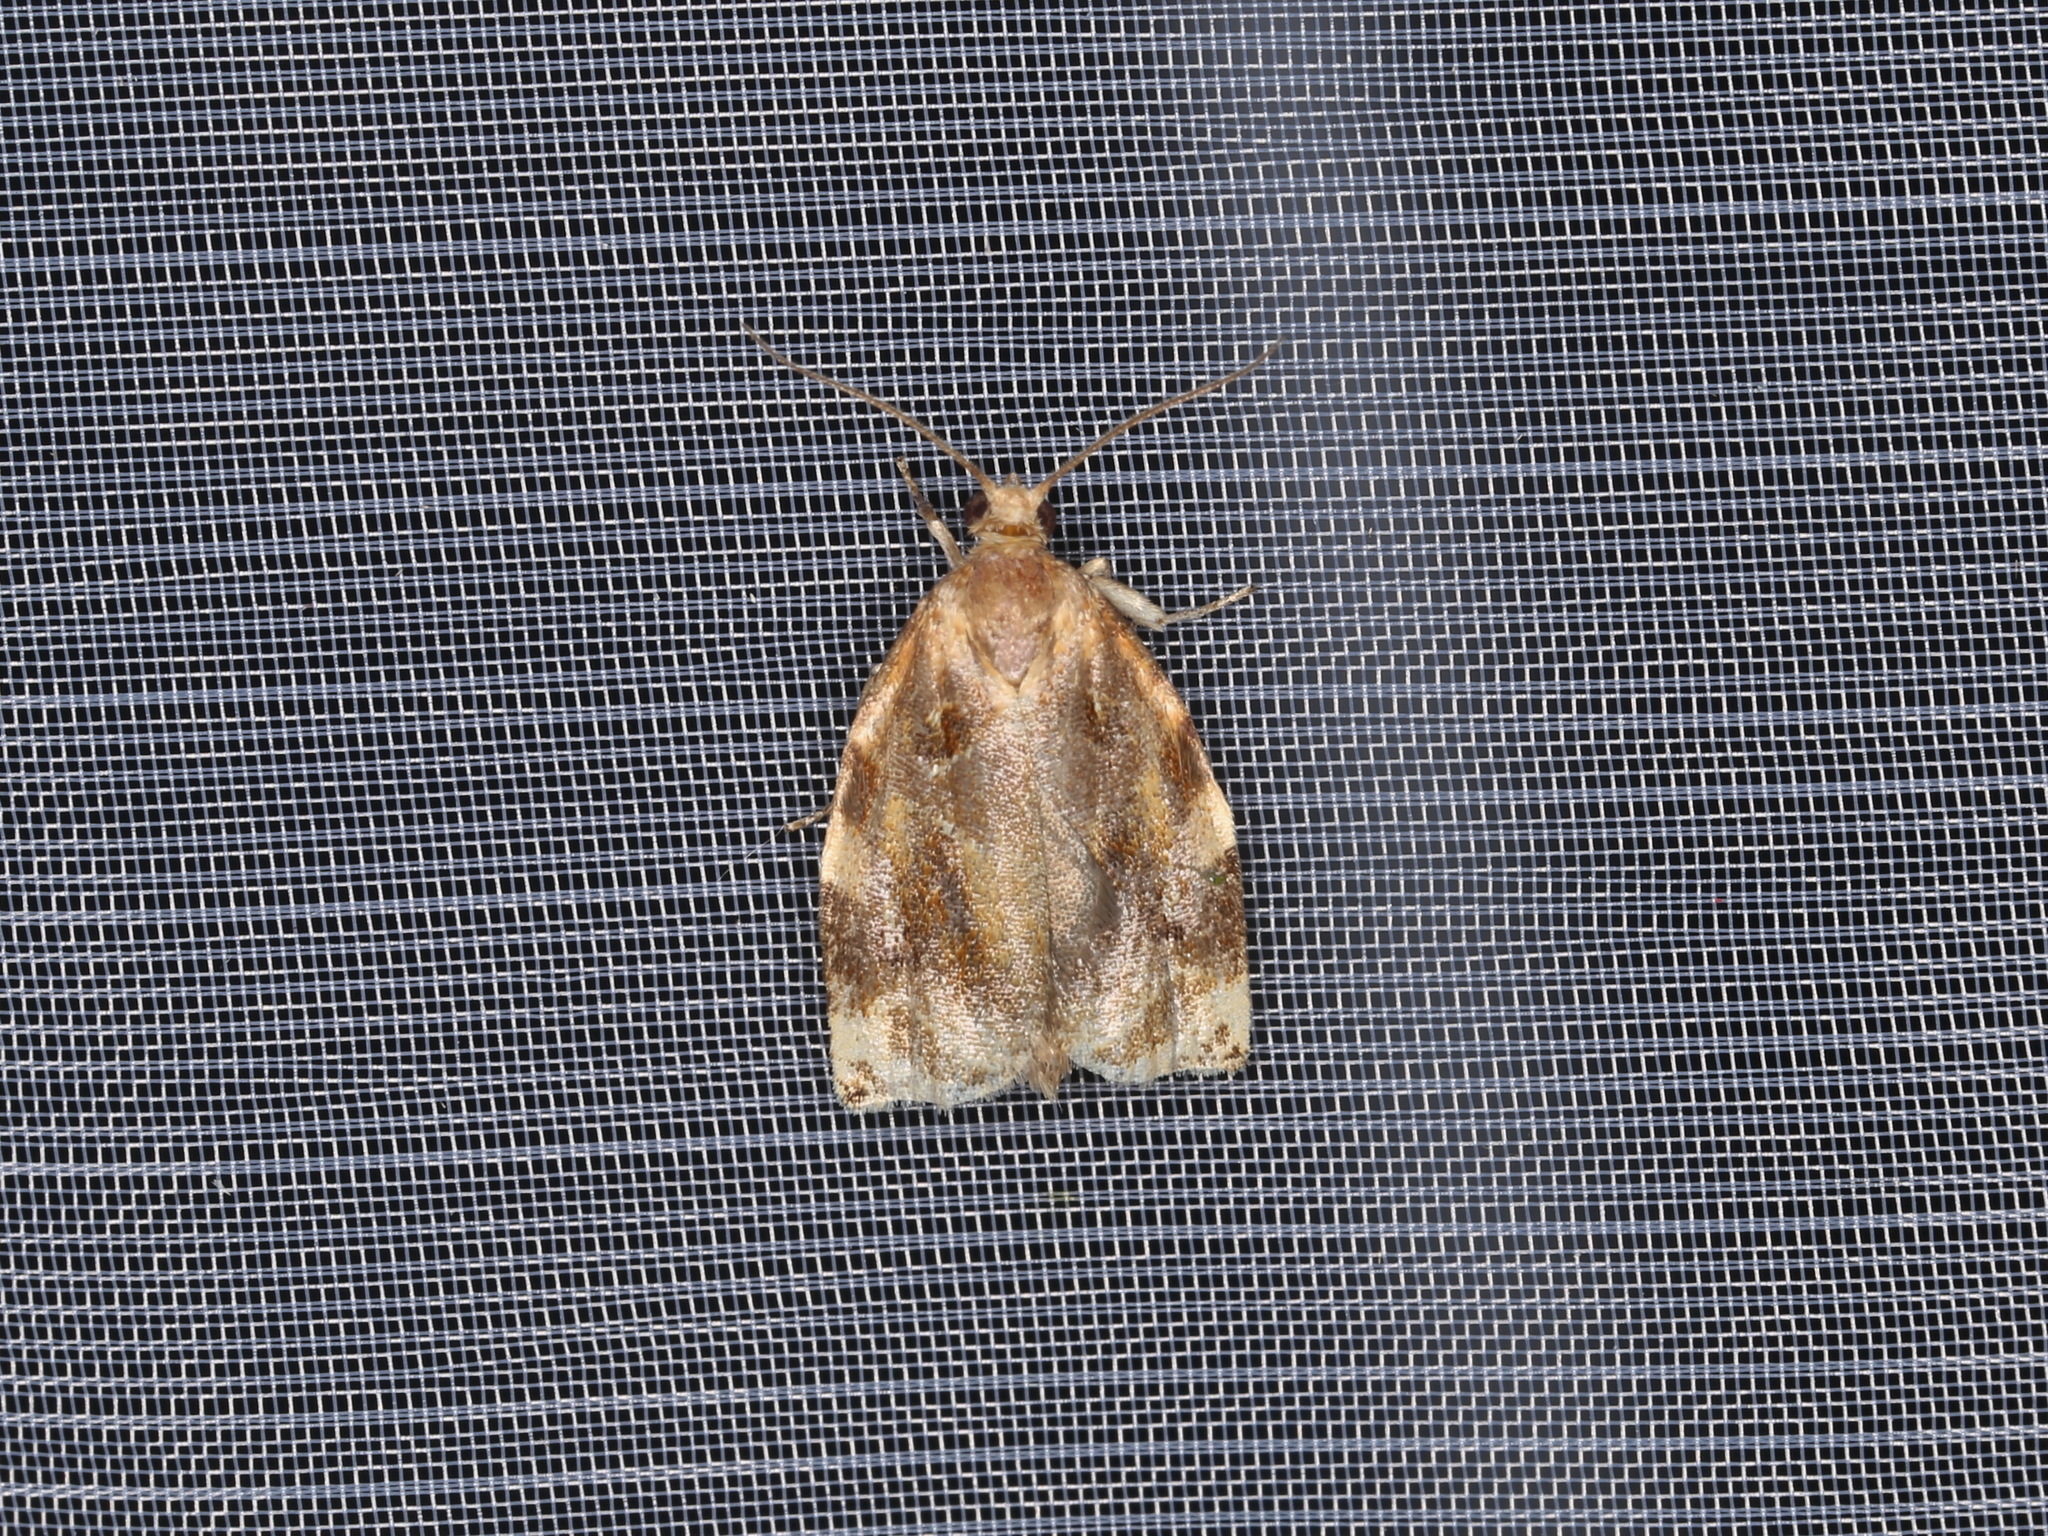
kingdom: Animalia
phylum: Arthropoda
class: Insecta
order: Lepidoptera
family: Tortricidae
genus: Archips
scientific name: Archips xylosteana
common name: Variegated golden tortrix
